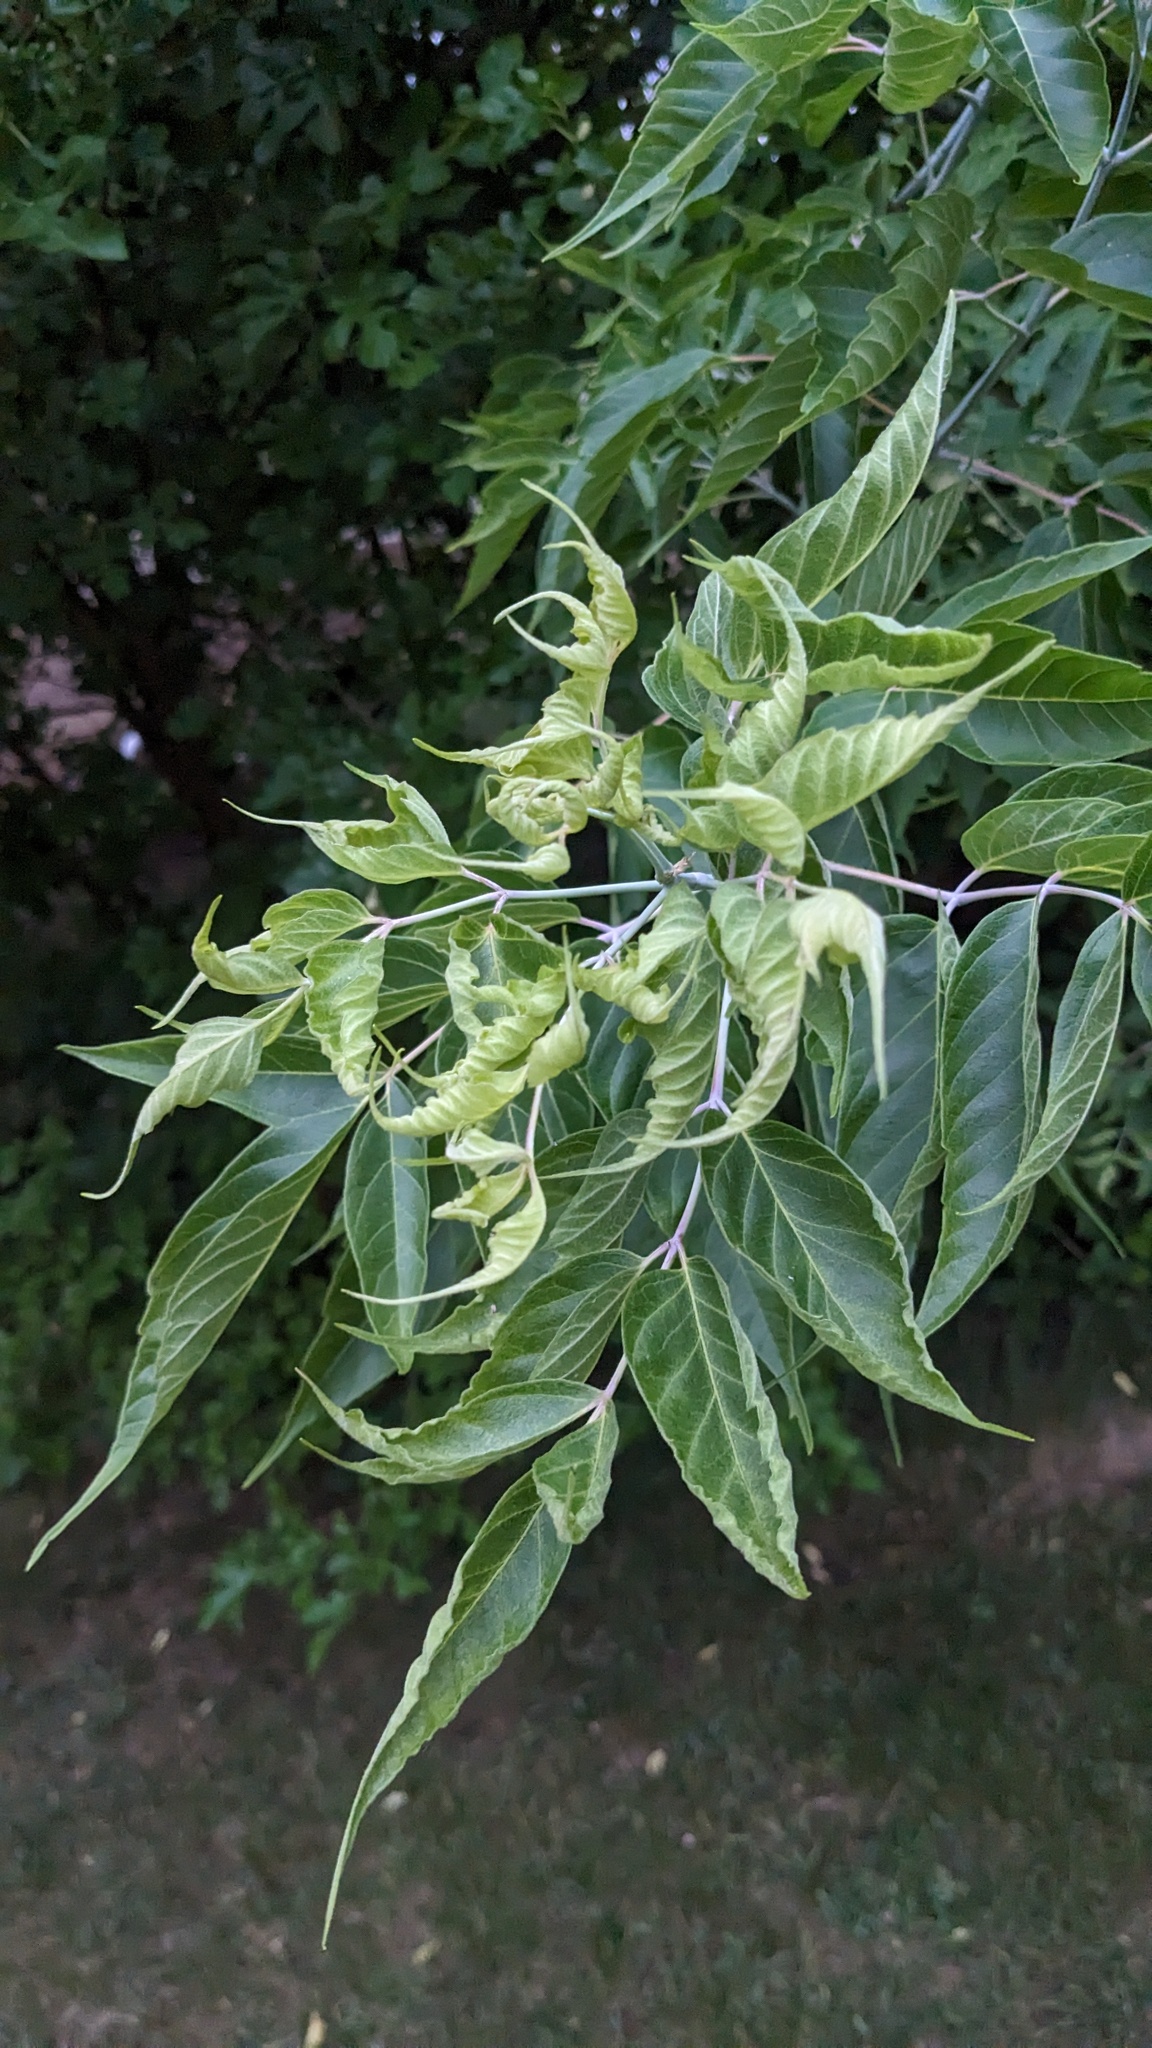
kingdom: Plantae
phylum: Tracheophyta
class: Magnoliopsida
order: Sapindales
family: Sapindaceae
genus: Acer
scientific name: Acer negundo
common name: Ashleaf maple
